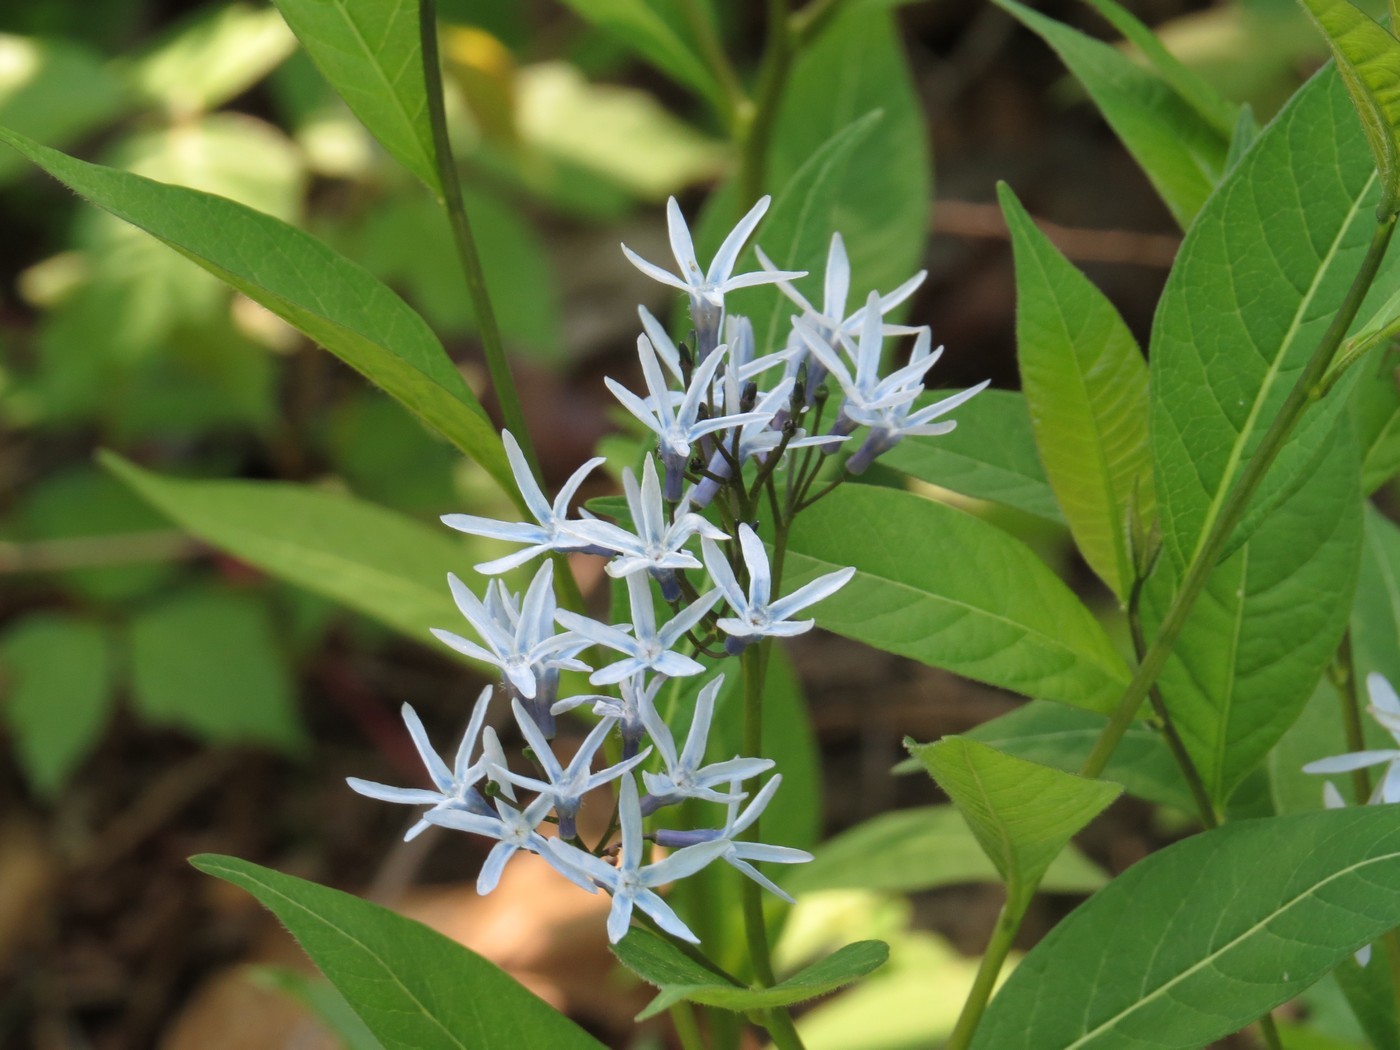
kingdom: Plantae
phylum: Tracheophyta
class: Magnoliopsida
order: Gentianales
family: Apocynaceae
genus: Amsonia
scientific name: Amsonia tabernaemontana
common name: Texas-star
